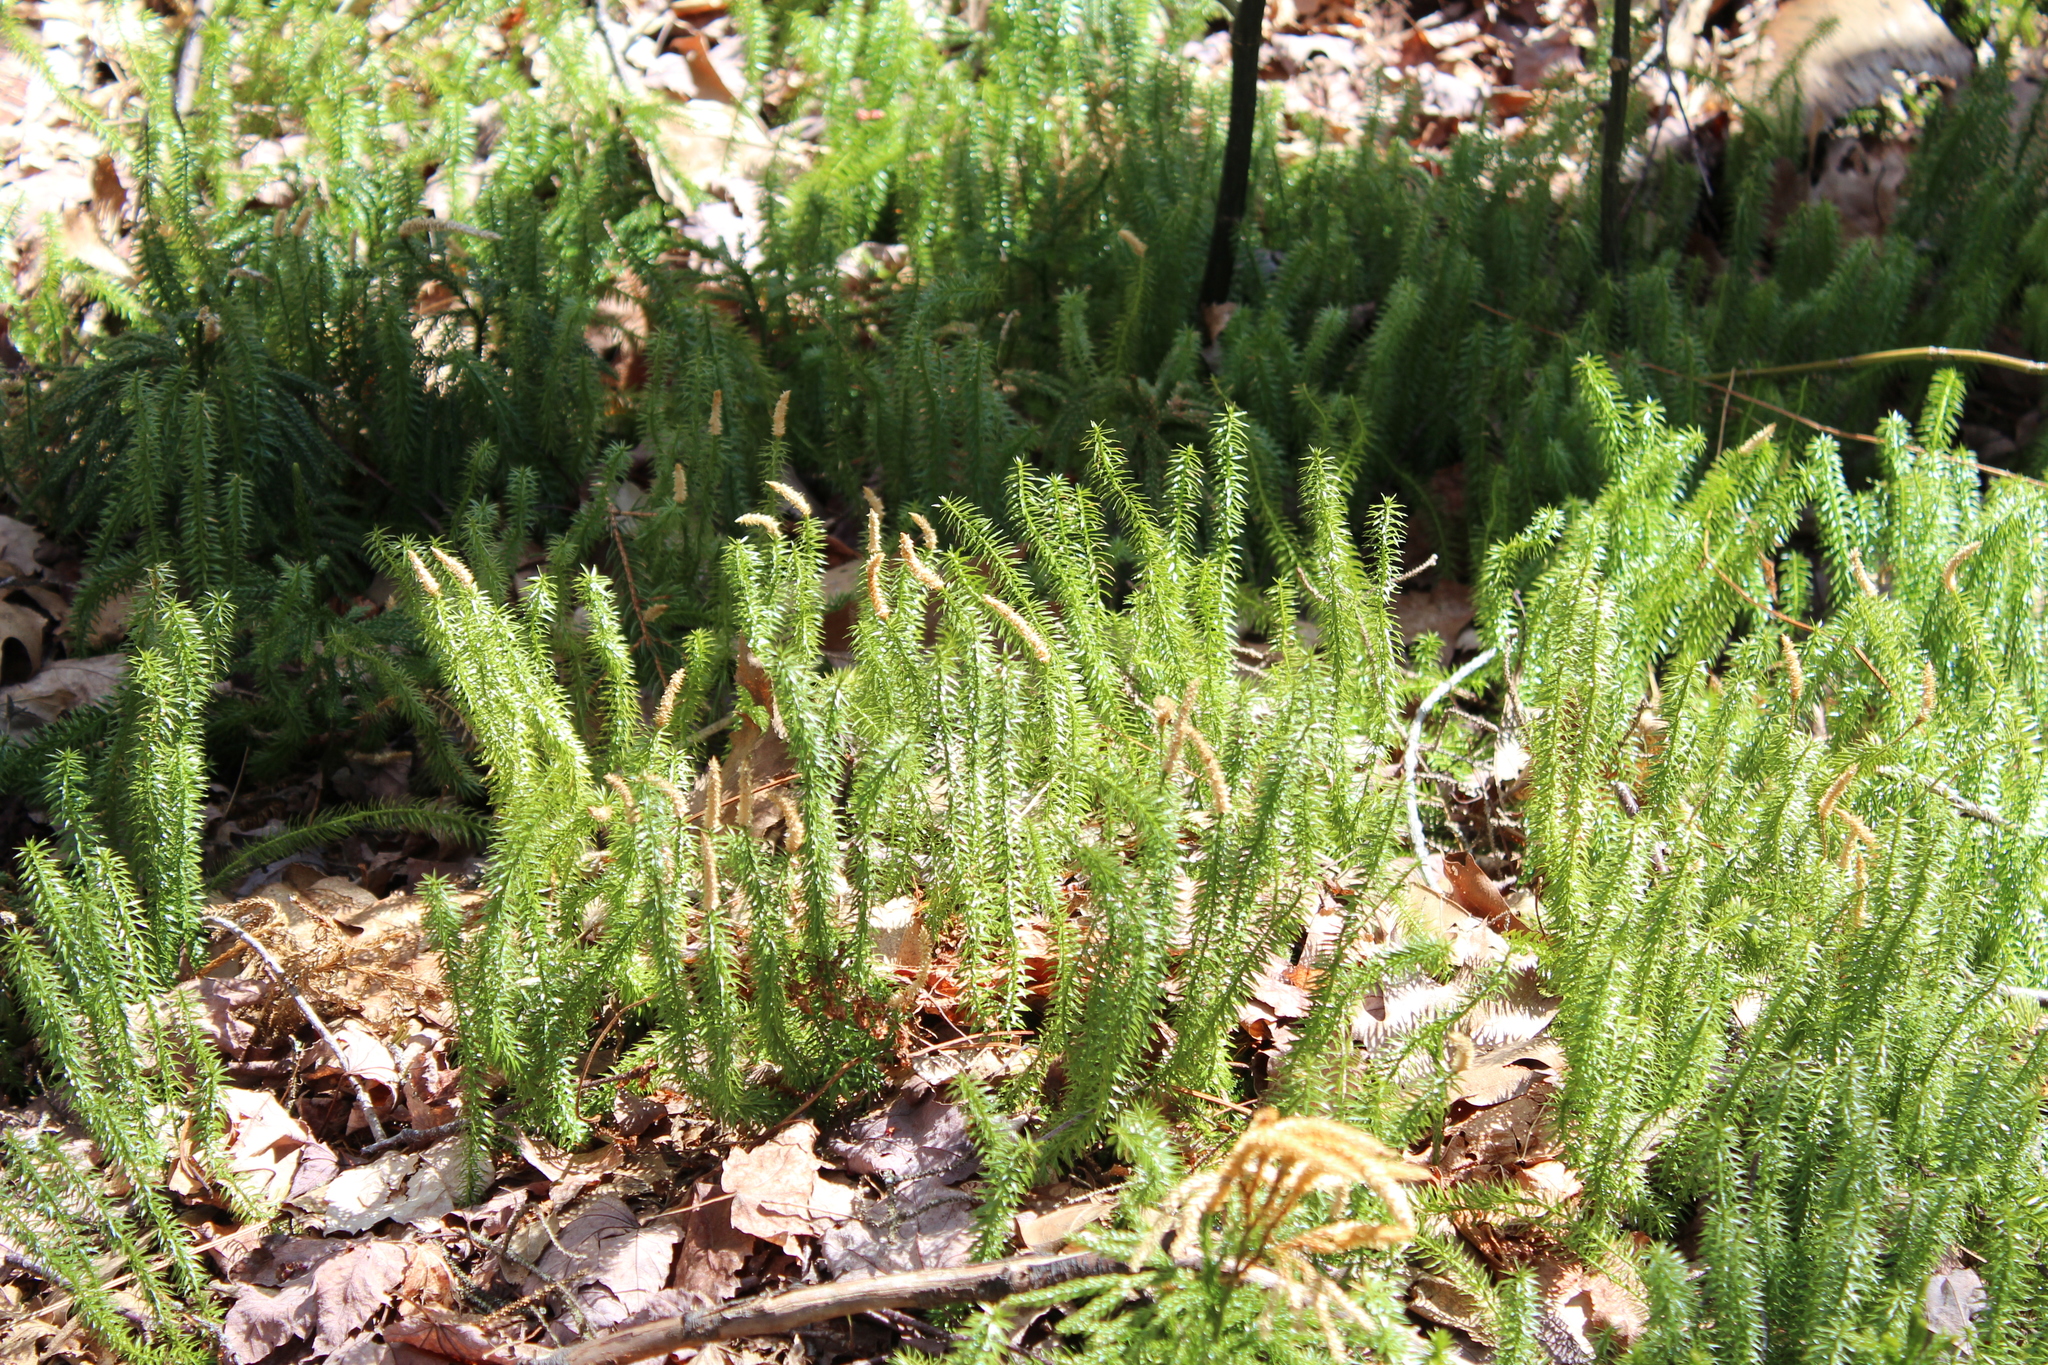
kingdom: Plantae
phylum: Tracheophyta
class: Lycopodiopsida
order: Lycopodiales
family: Lycopodiaceae
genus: Spinulum
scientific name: Spinulum annotinum
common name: Interrupted club-moss
